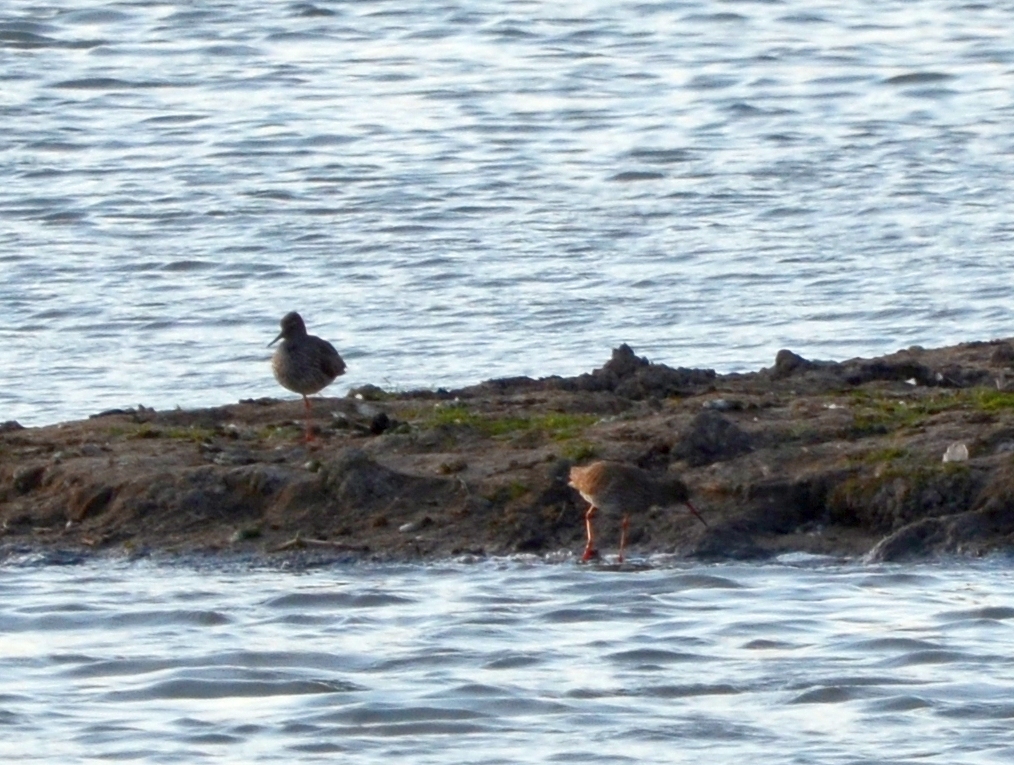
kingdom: Animalia
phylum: Chordata
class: Aves
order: Charadriiformes
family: Scolopacidae
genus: Tringa
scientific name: Tringa totanus
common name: Common redshank
